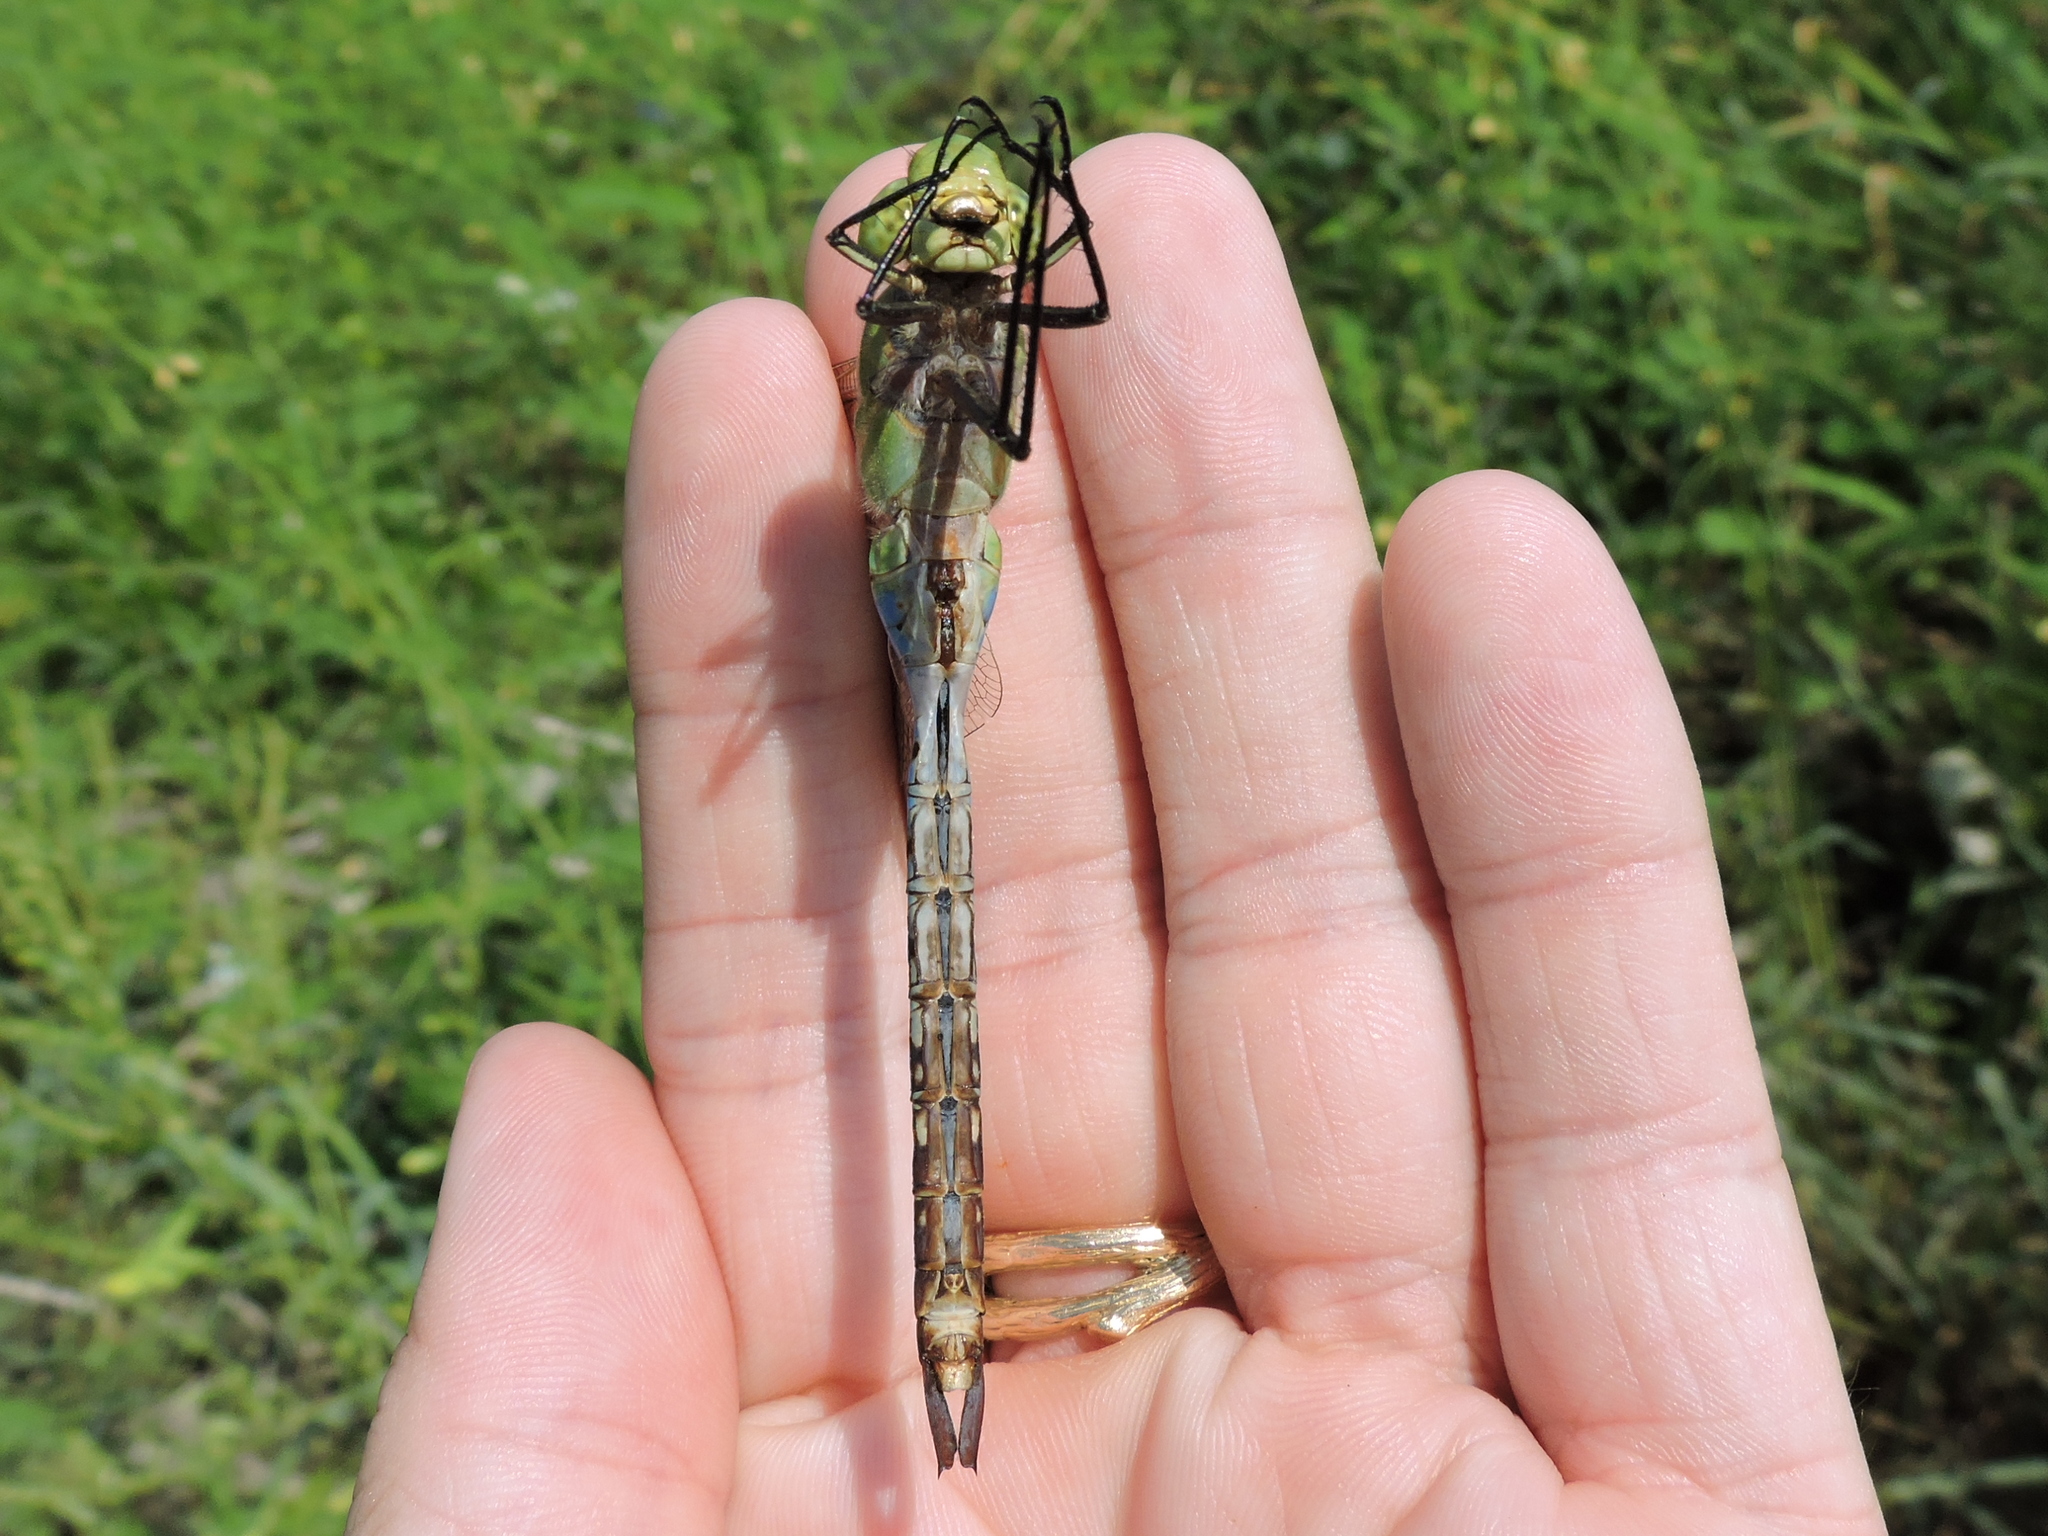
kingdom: Animalia
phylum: Arthropoda
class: Insecta
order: Odonata
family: Aeshnidae
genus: Anax
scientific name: Anax junius
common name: Common green darner
